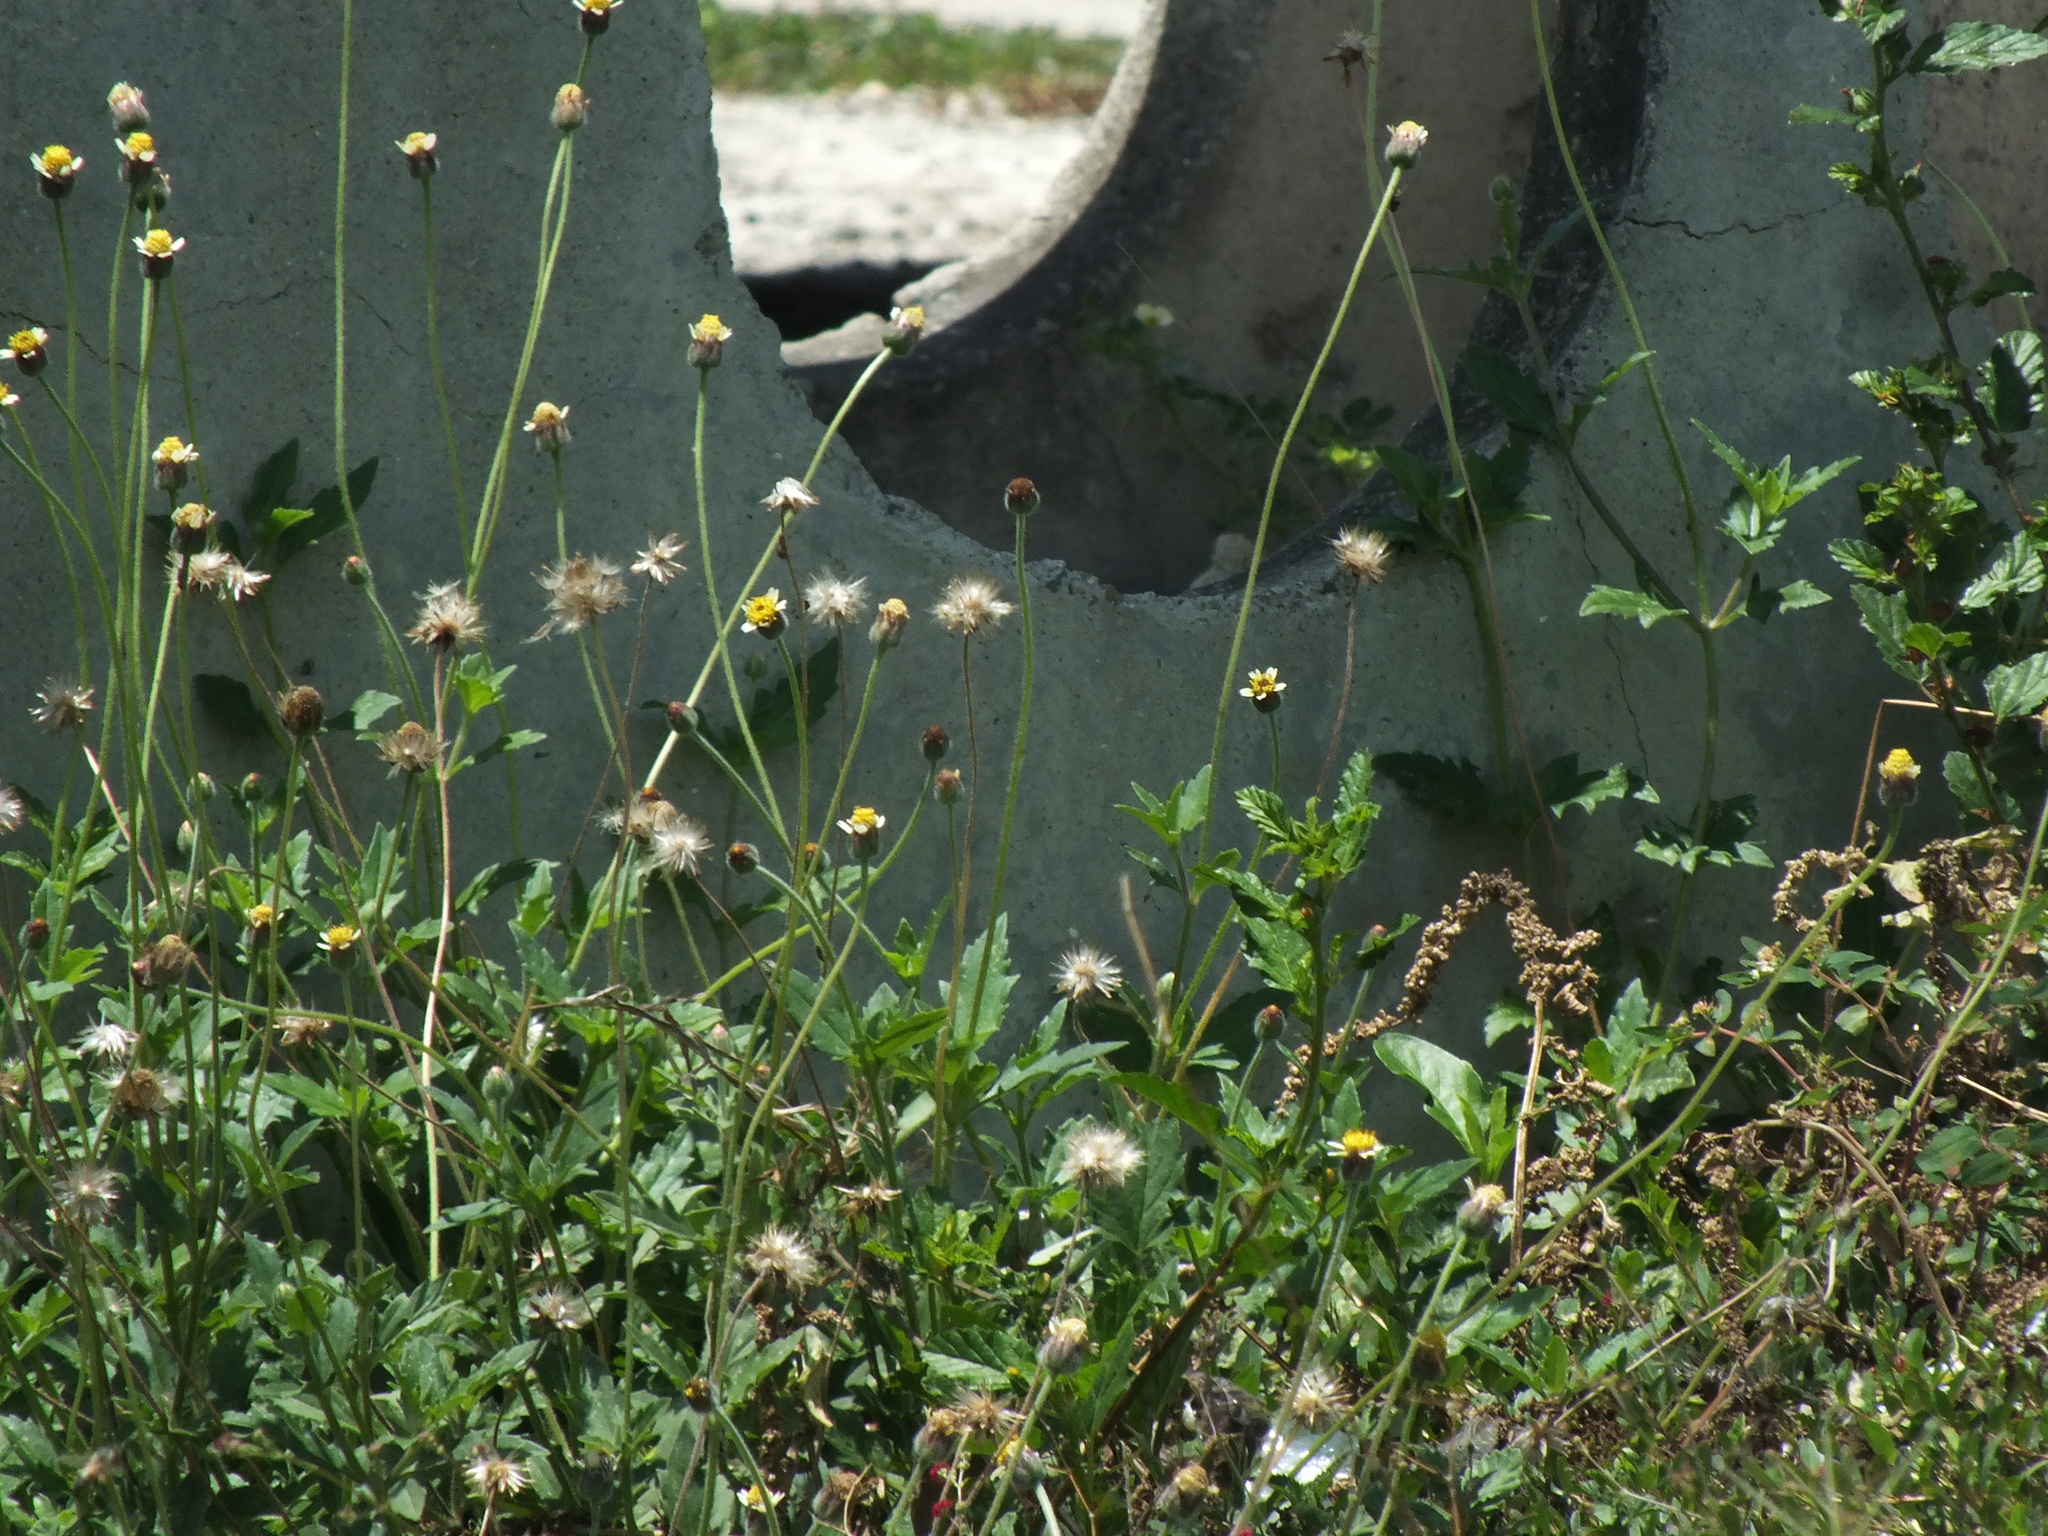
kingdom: Plantae
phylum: Tracheophyta
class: Magnoliopsida
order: Asterales
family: Asteraceae
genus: Tridax
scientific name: Tridax procumbens
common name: Coatbuttons
